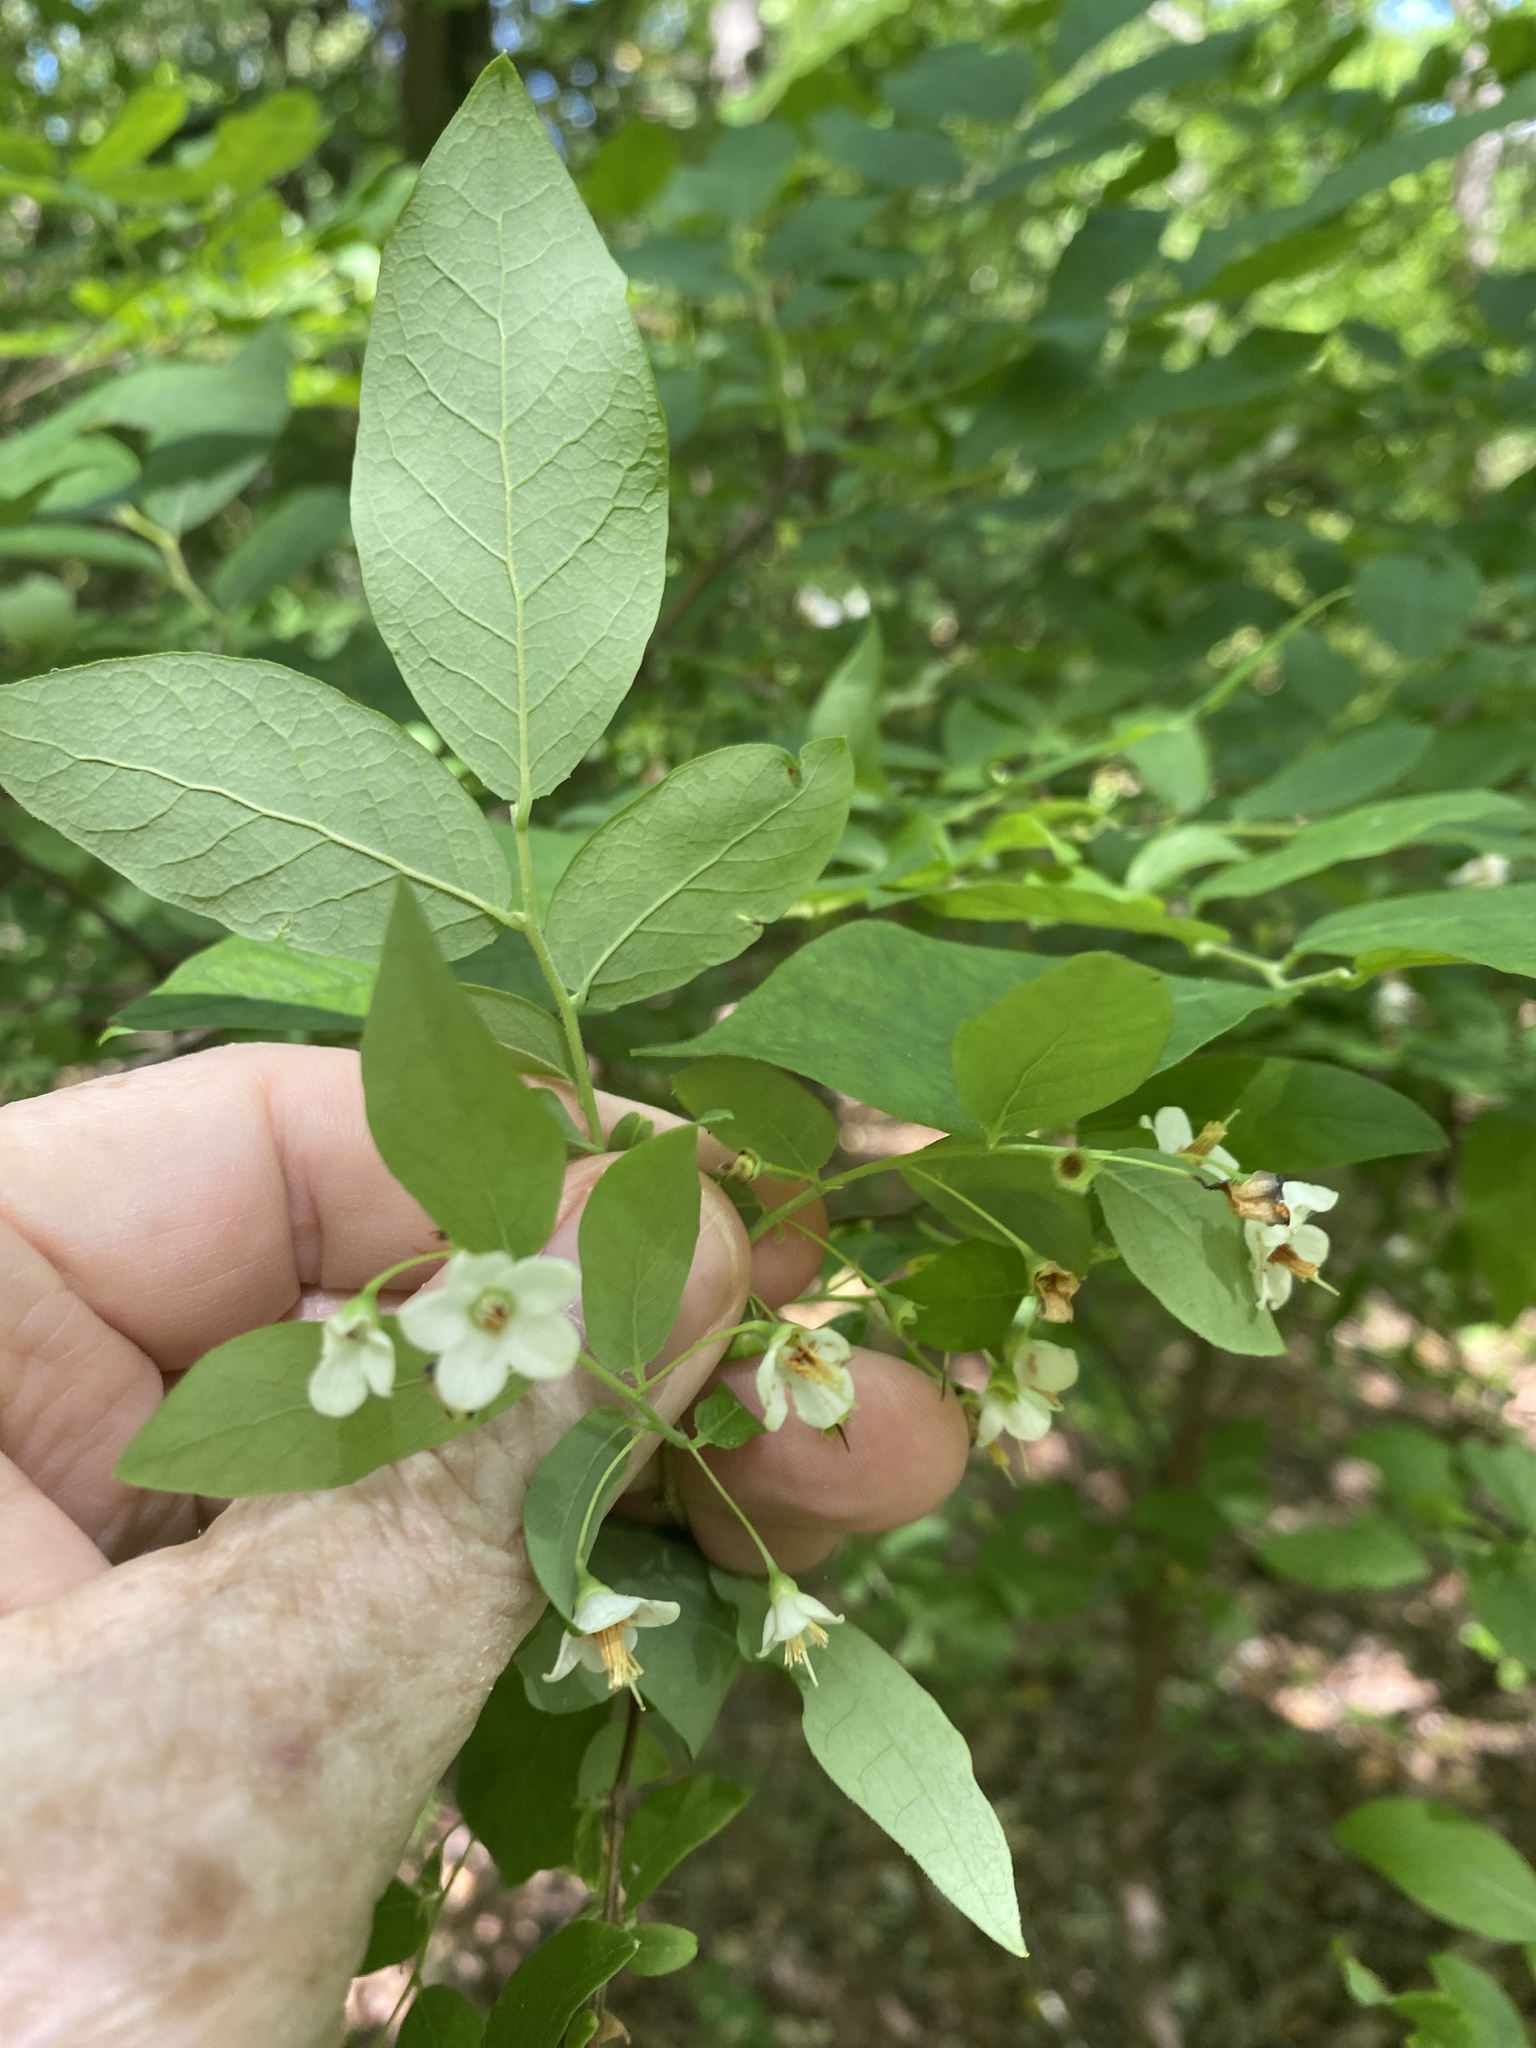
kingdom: Plantae
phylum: Tracheophyta
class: Magnoliopsida
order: Ericales
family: Ericaceae
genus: Vaccinium
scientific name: Vaccinium stamineum
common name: Deerberry
